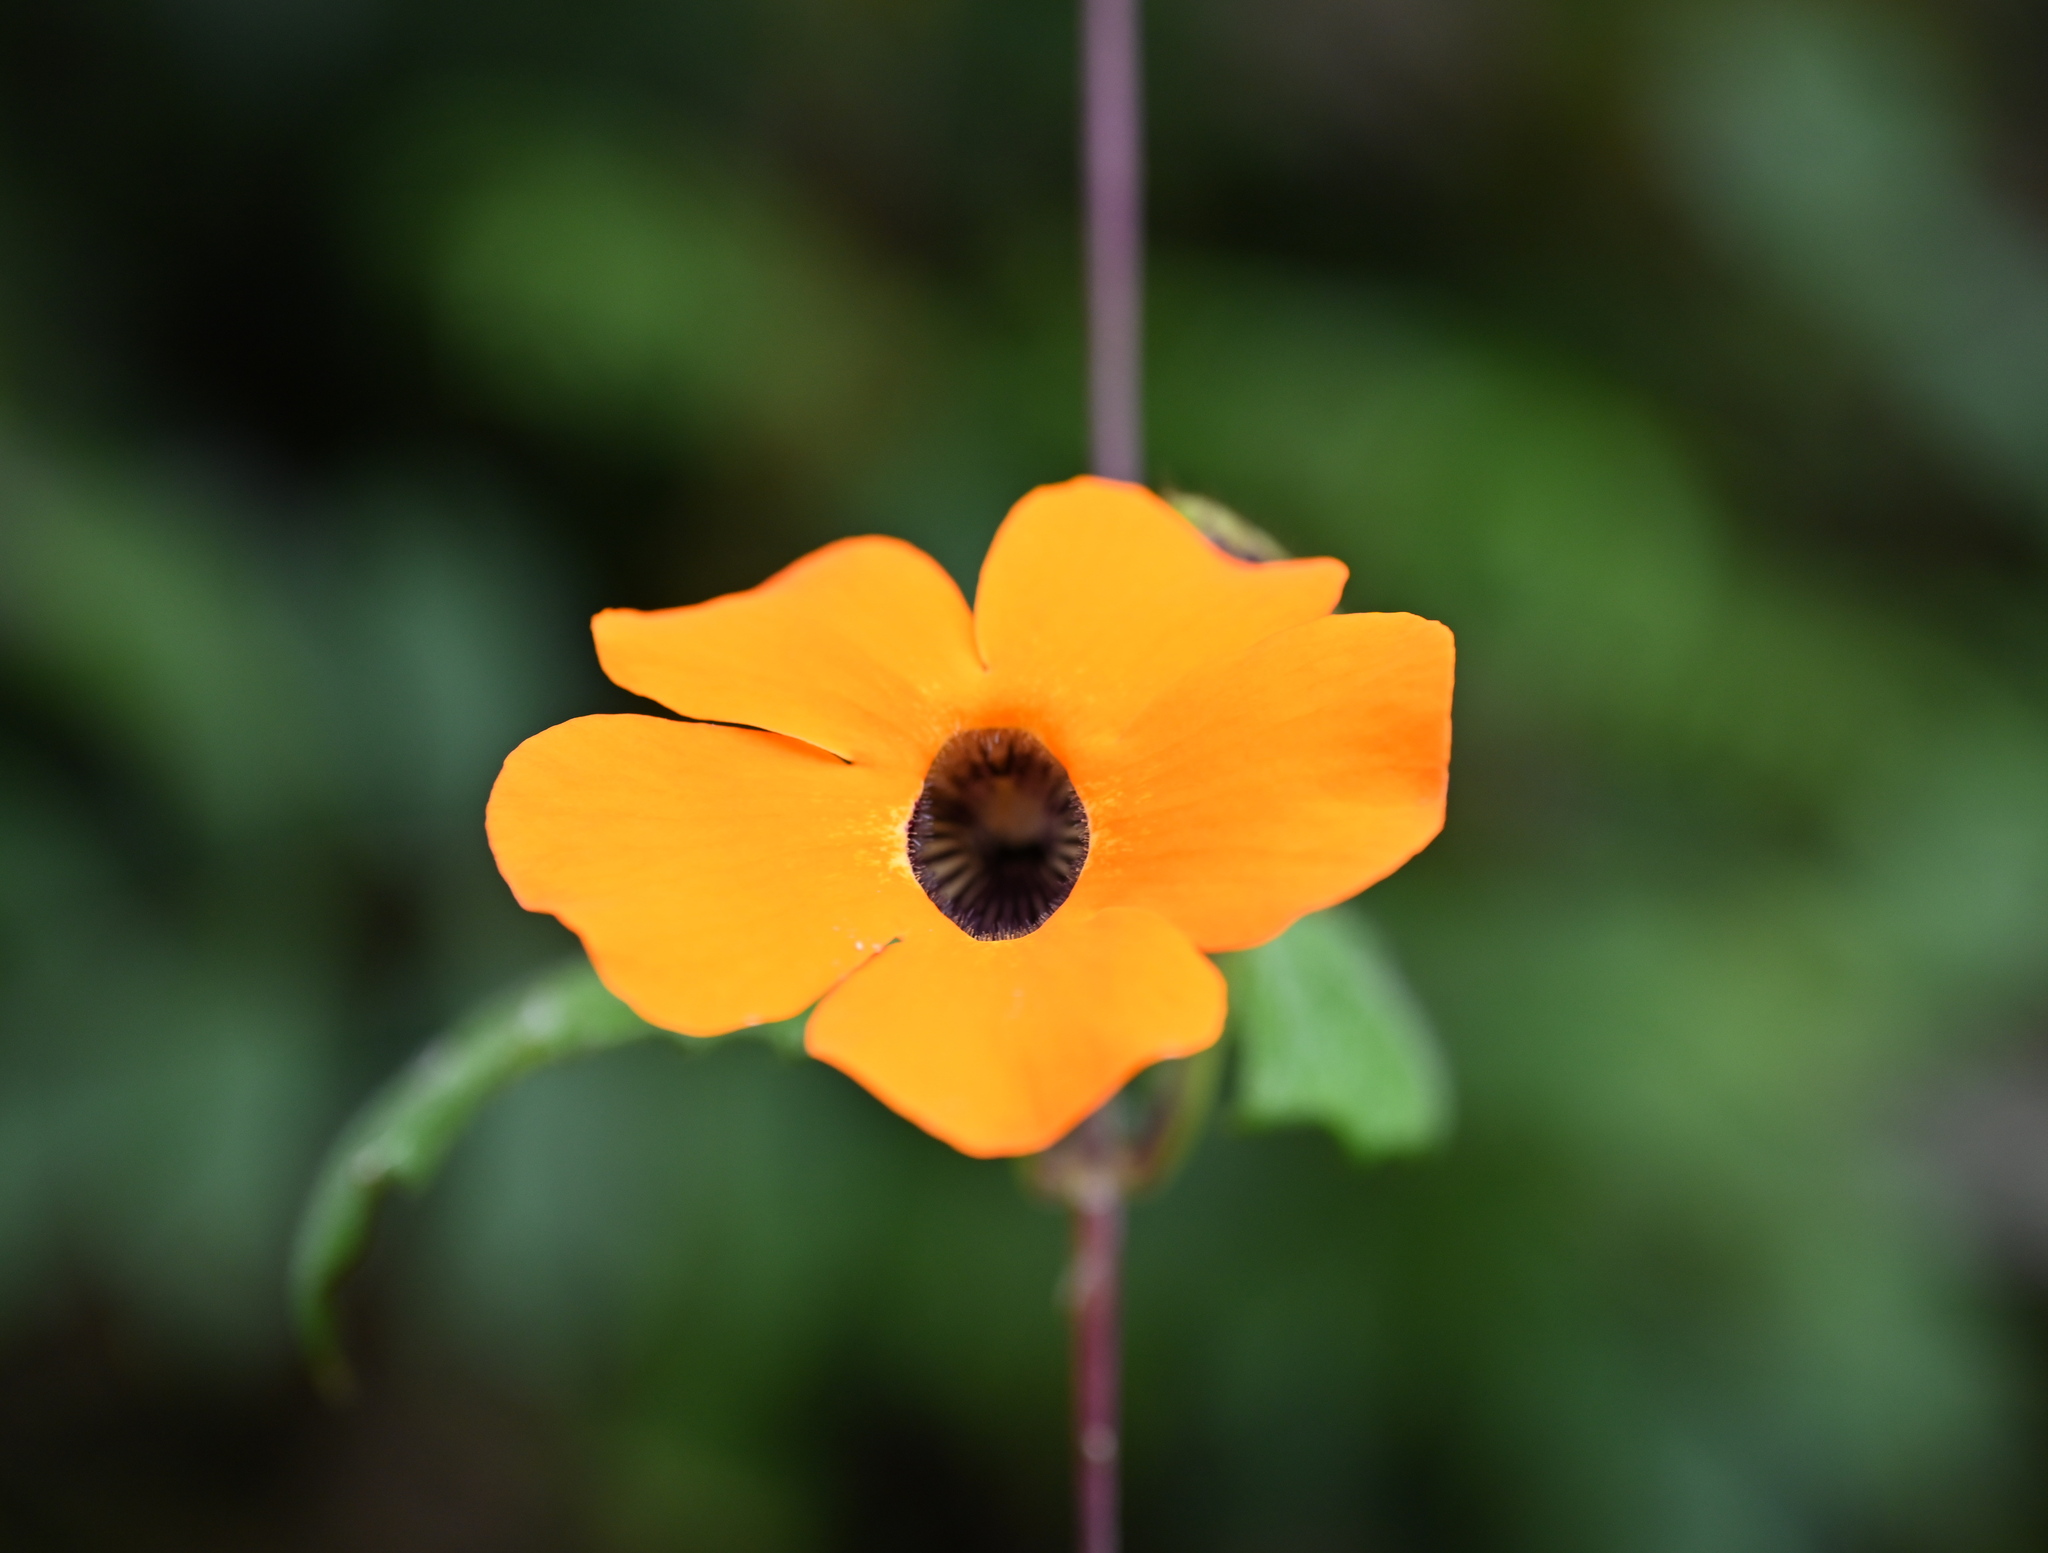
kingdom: Plantae
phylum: Tracheophyta
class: Magnoliopsida
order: Lamiales
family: Acanthaceae
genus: Thunbergia
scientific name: Thunbergia alata
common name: Blackeyed susan vine
